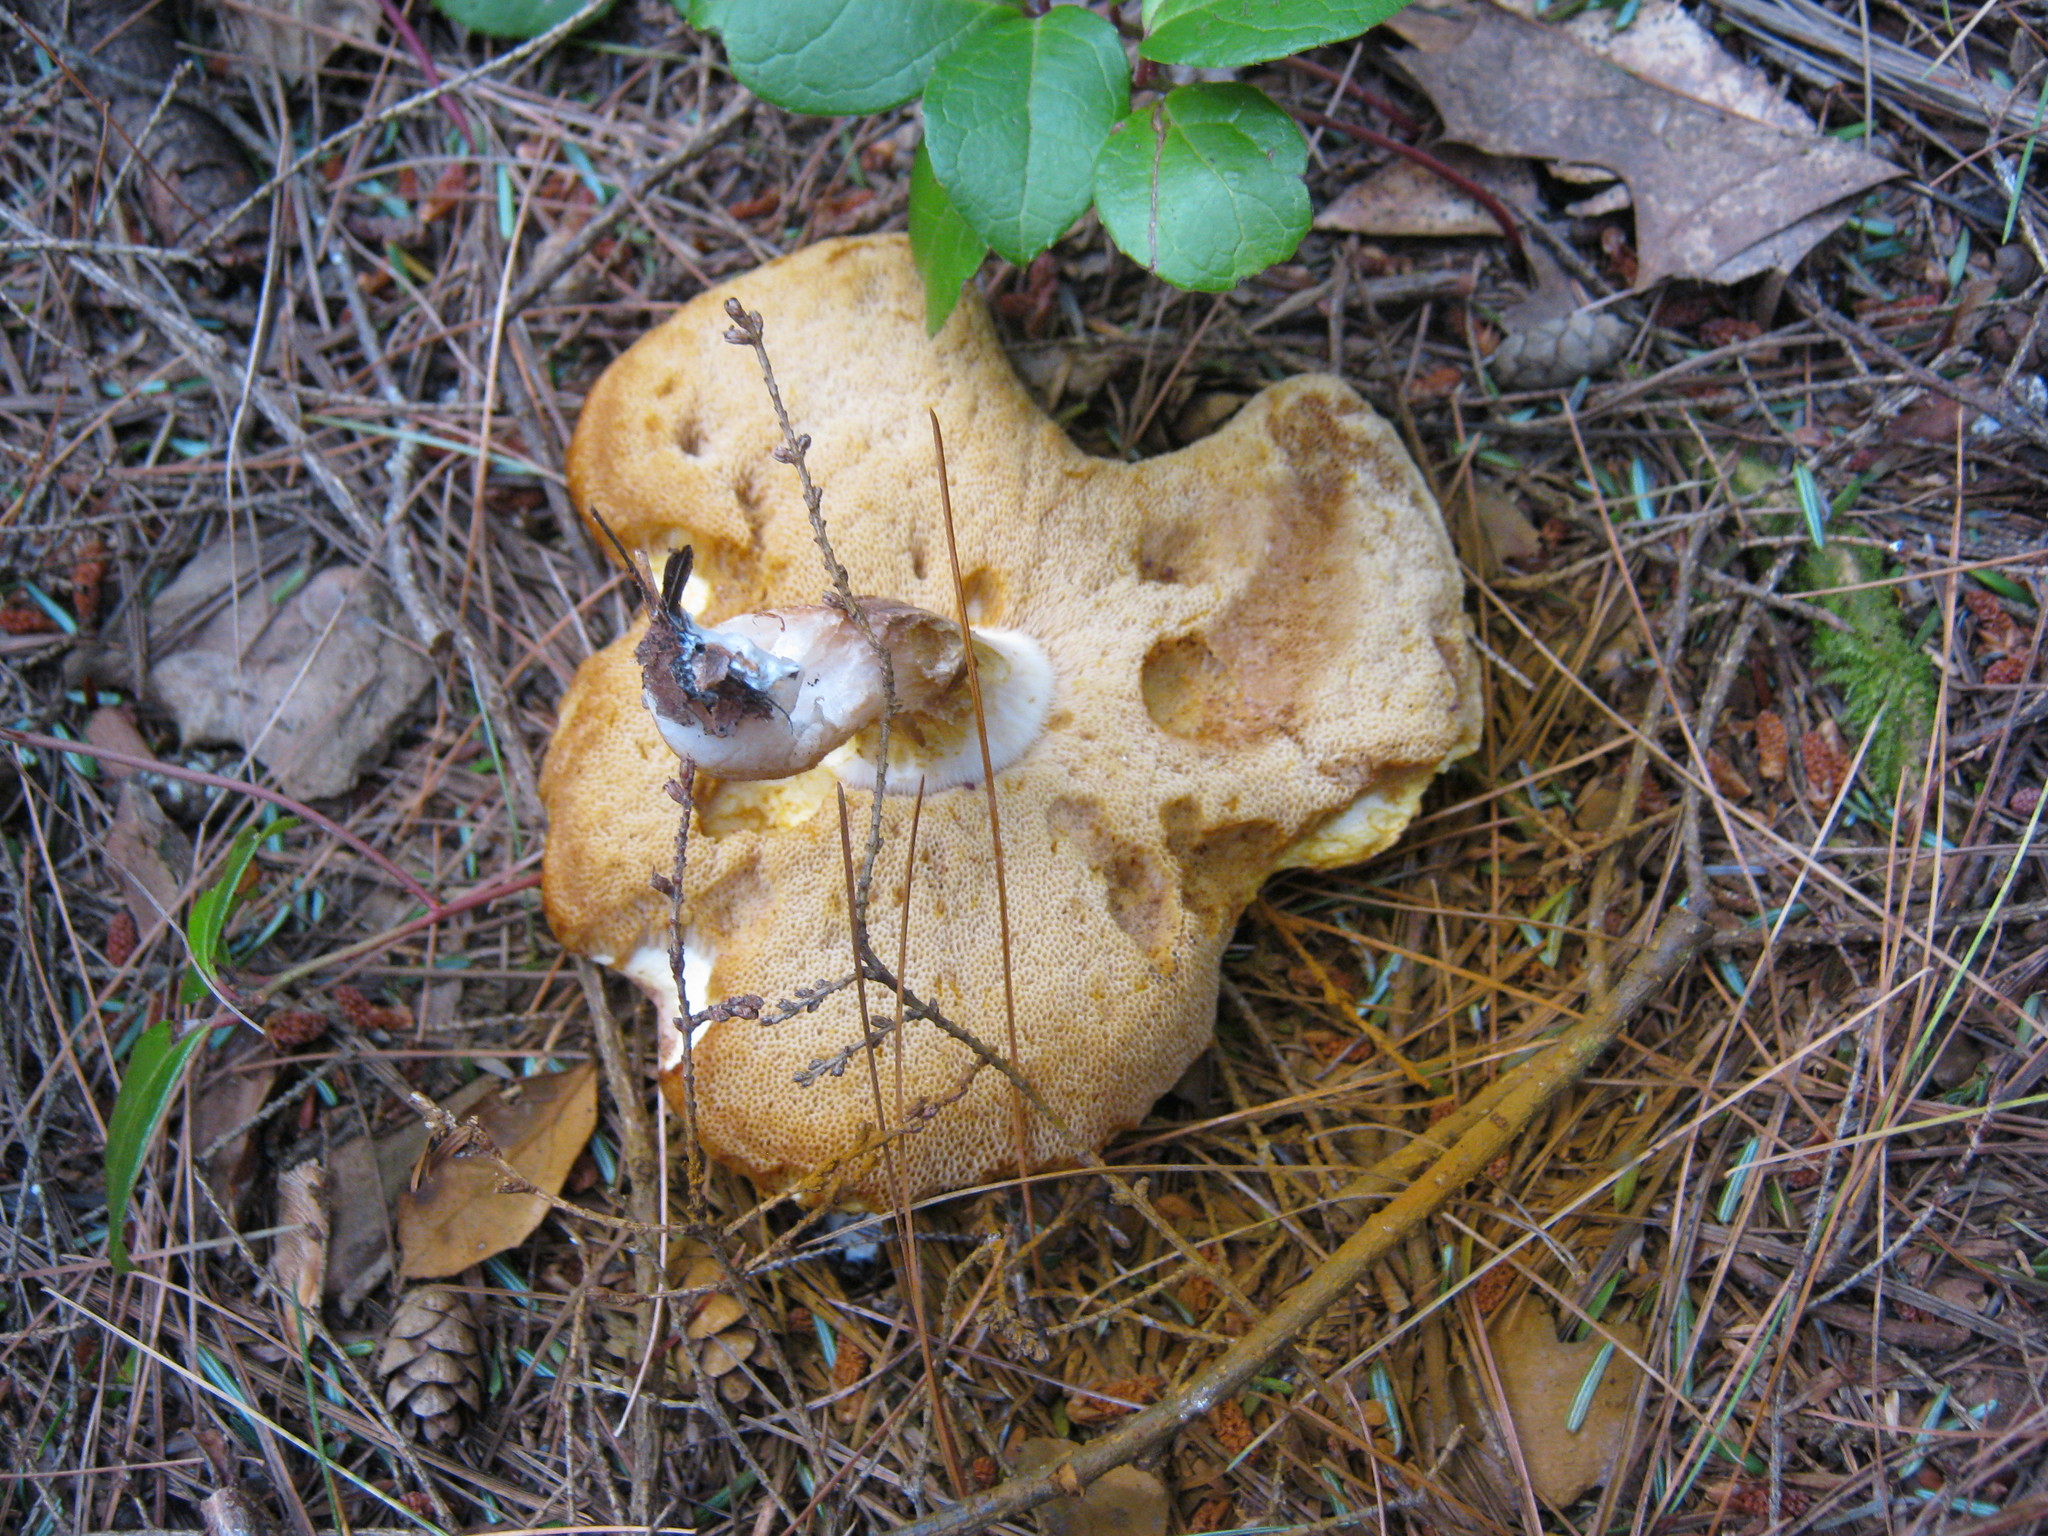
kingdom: Fungi
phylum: Basidiomycota
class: Agaricomycetes
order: Boletales
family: Boletaceae
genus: Xanthoconium
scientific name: Xanthoconium affine
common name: Spotted bolete
